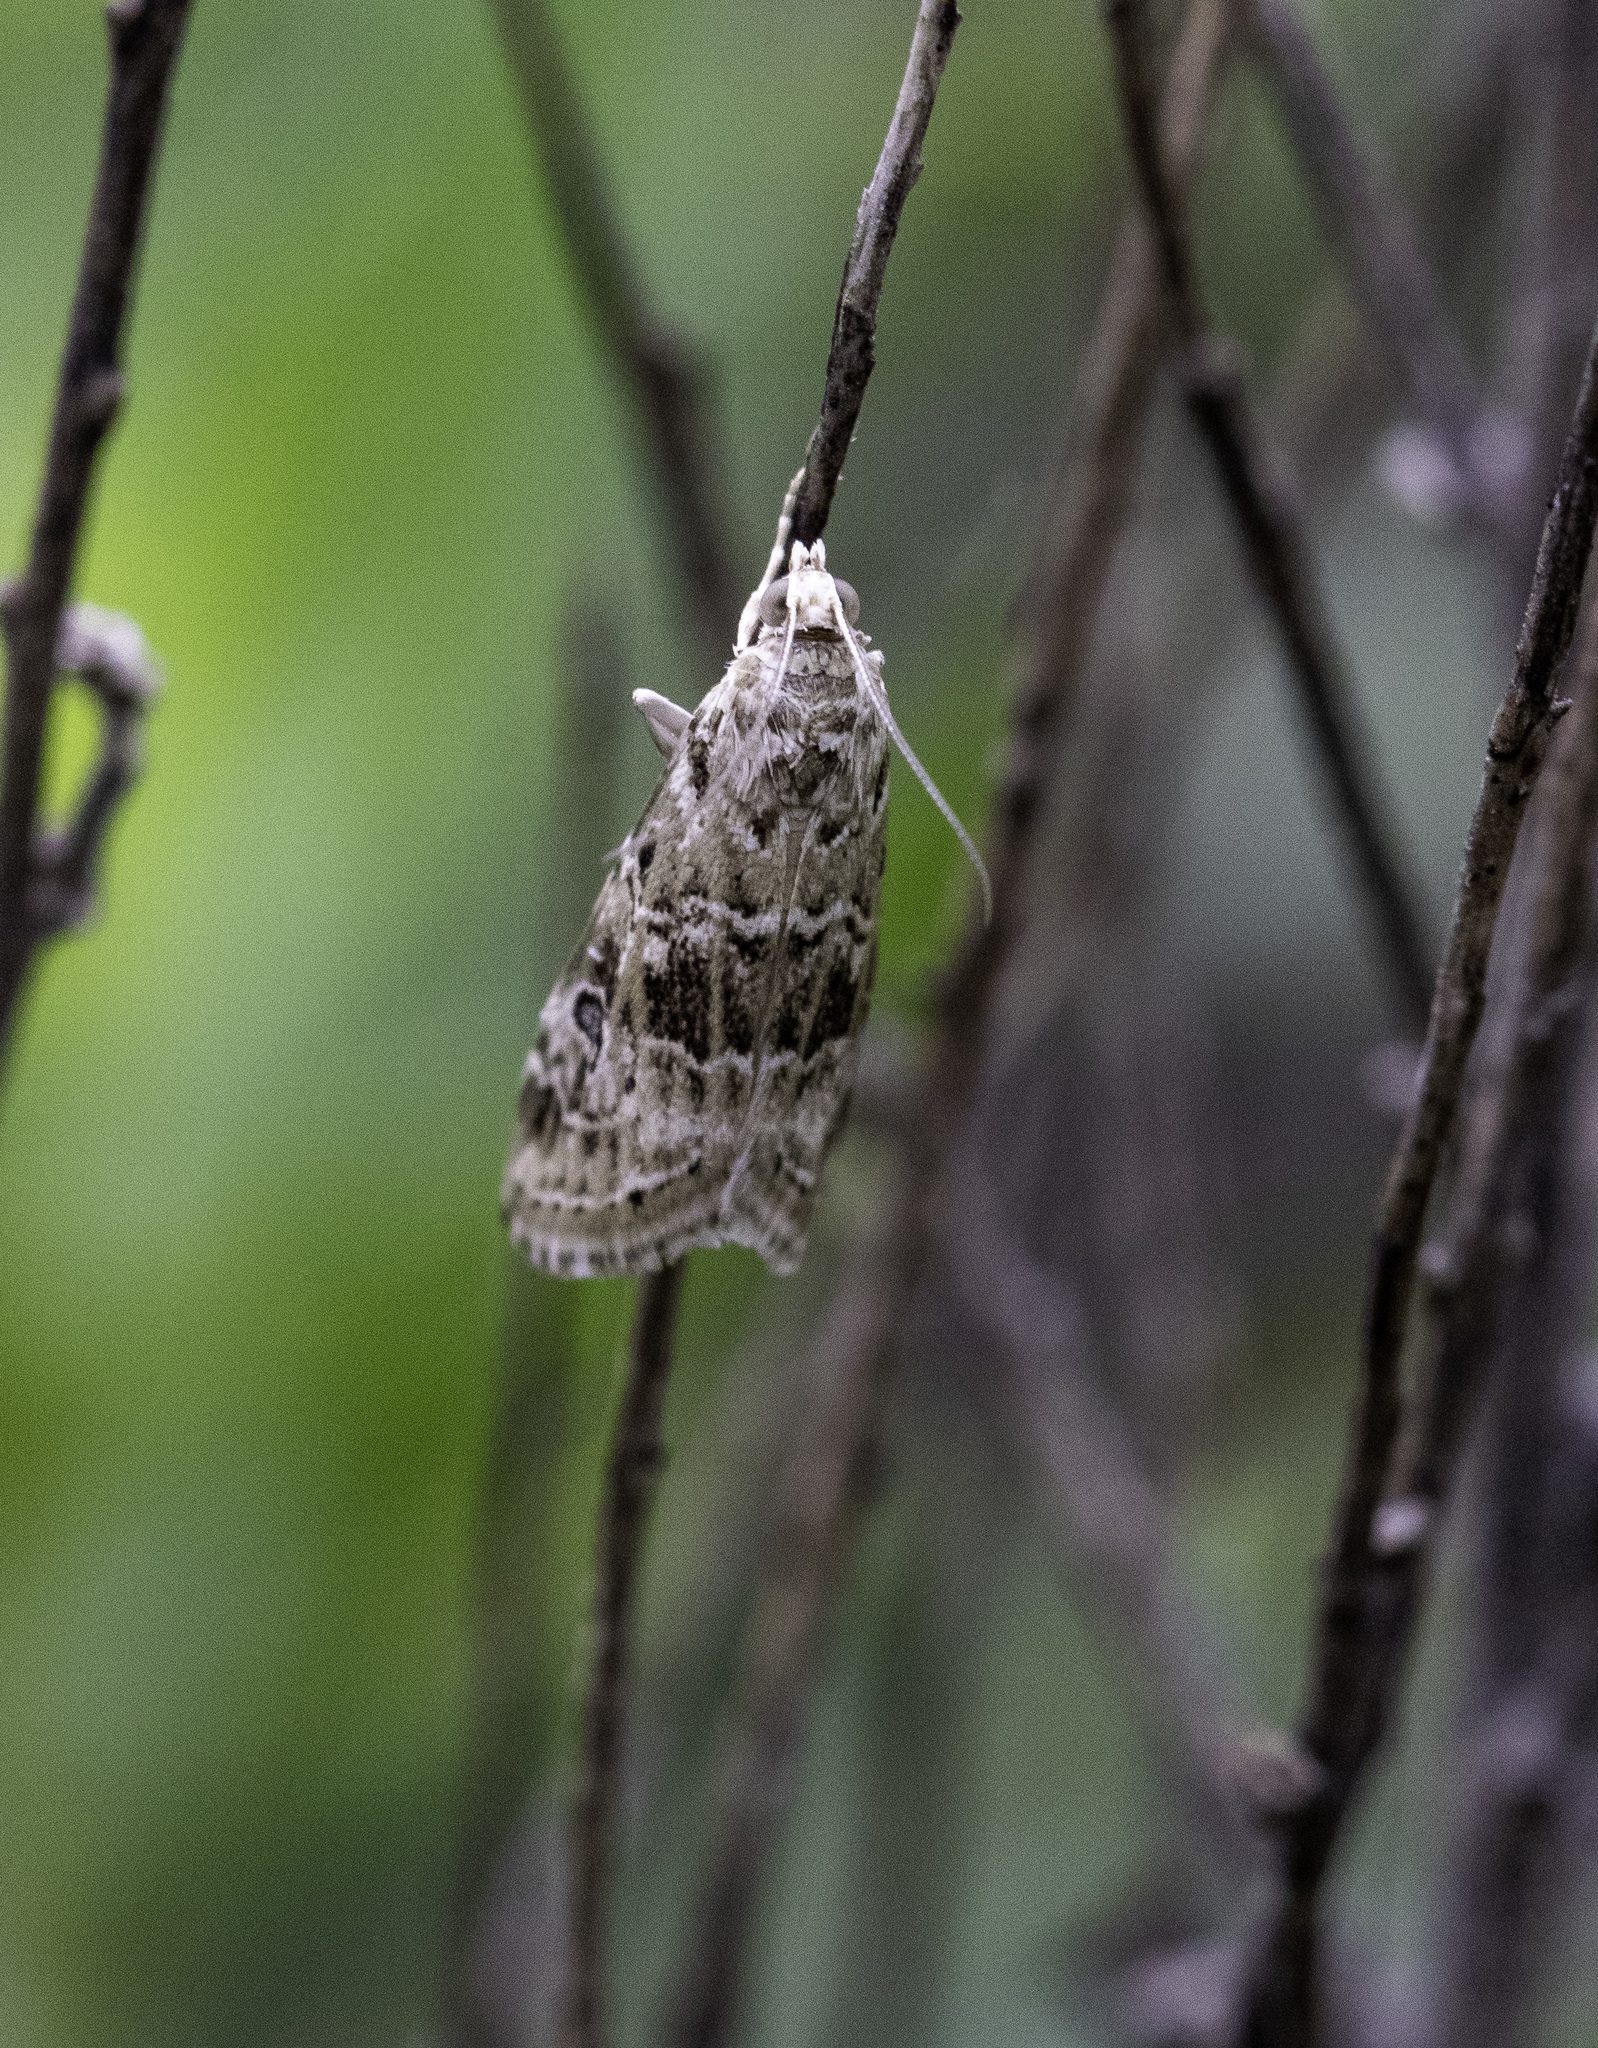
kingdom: Animalia
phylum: Arthropoda
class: Insecta
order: Lepidoptera
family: Crambidae
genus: Hellula
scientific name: Hellula rogatalis
